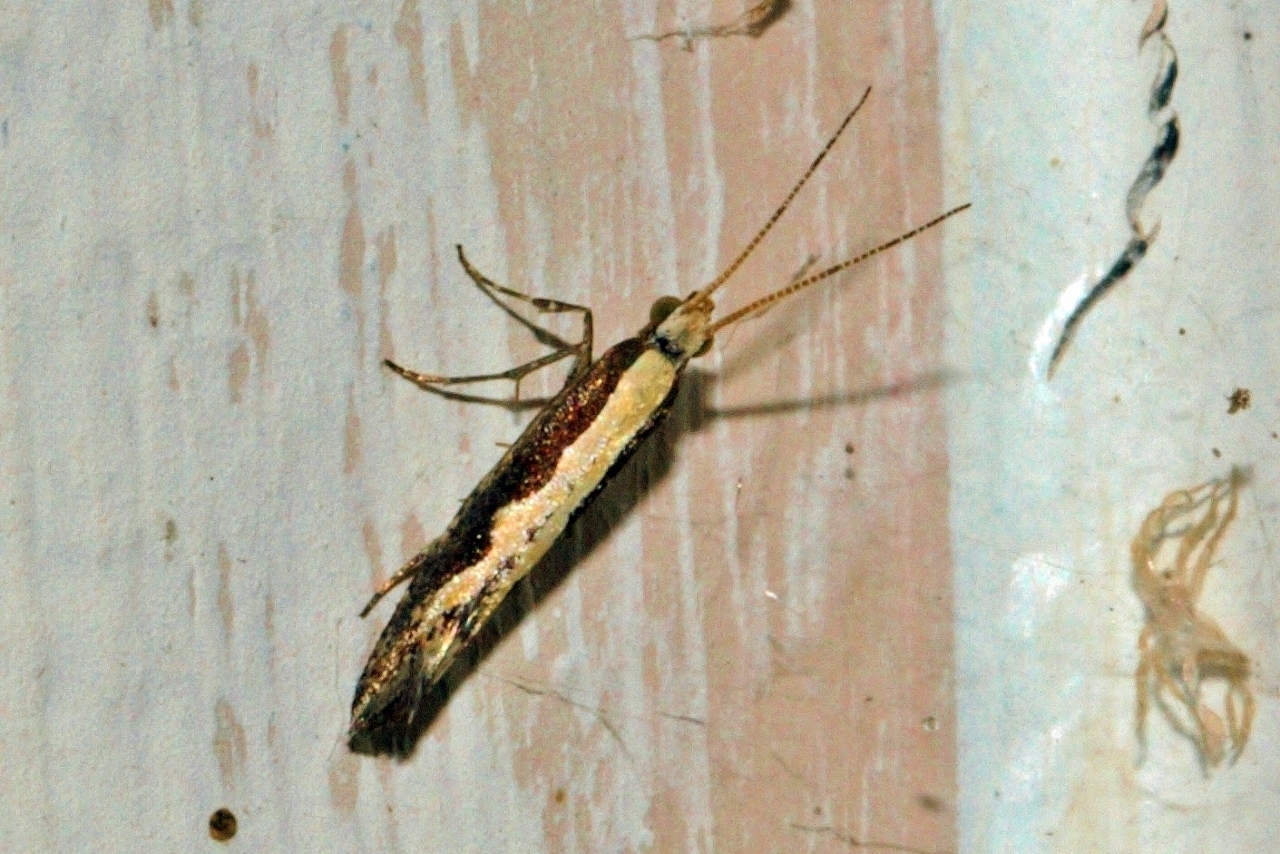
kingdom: Animalia
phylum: Arthropoda
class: Insecta
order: Lepidoptera
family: Plutellidae
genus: Plutella
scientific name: Plutella xylostella
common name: Diamond-back moth
